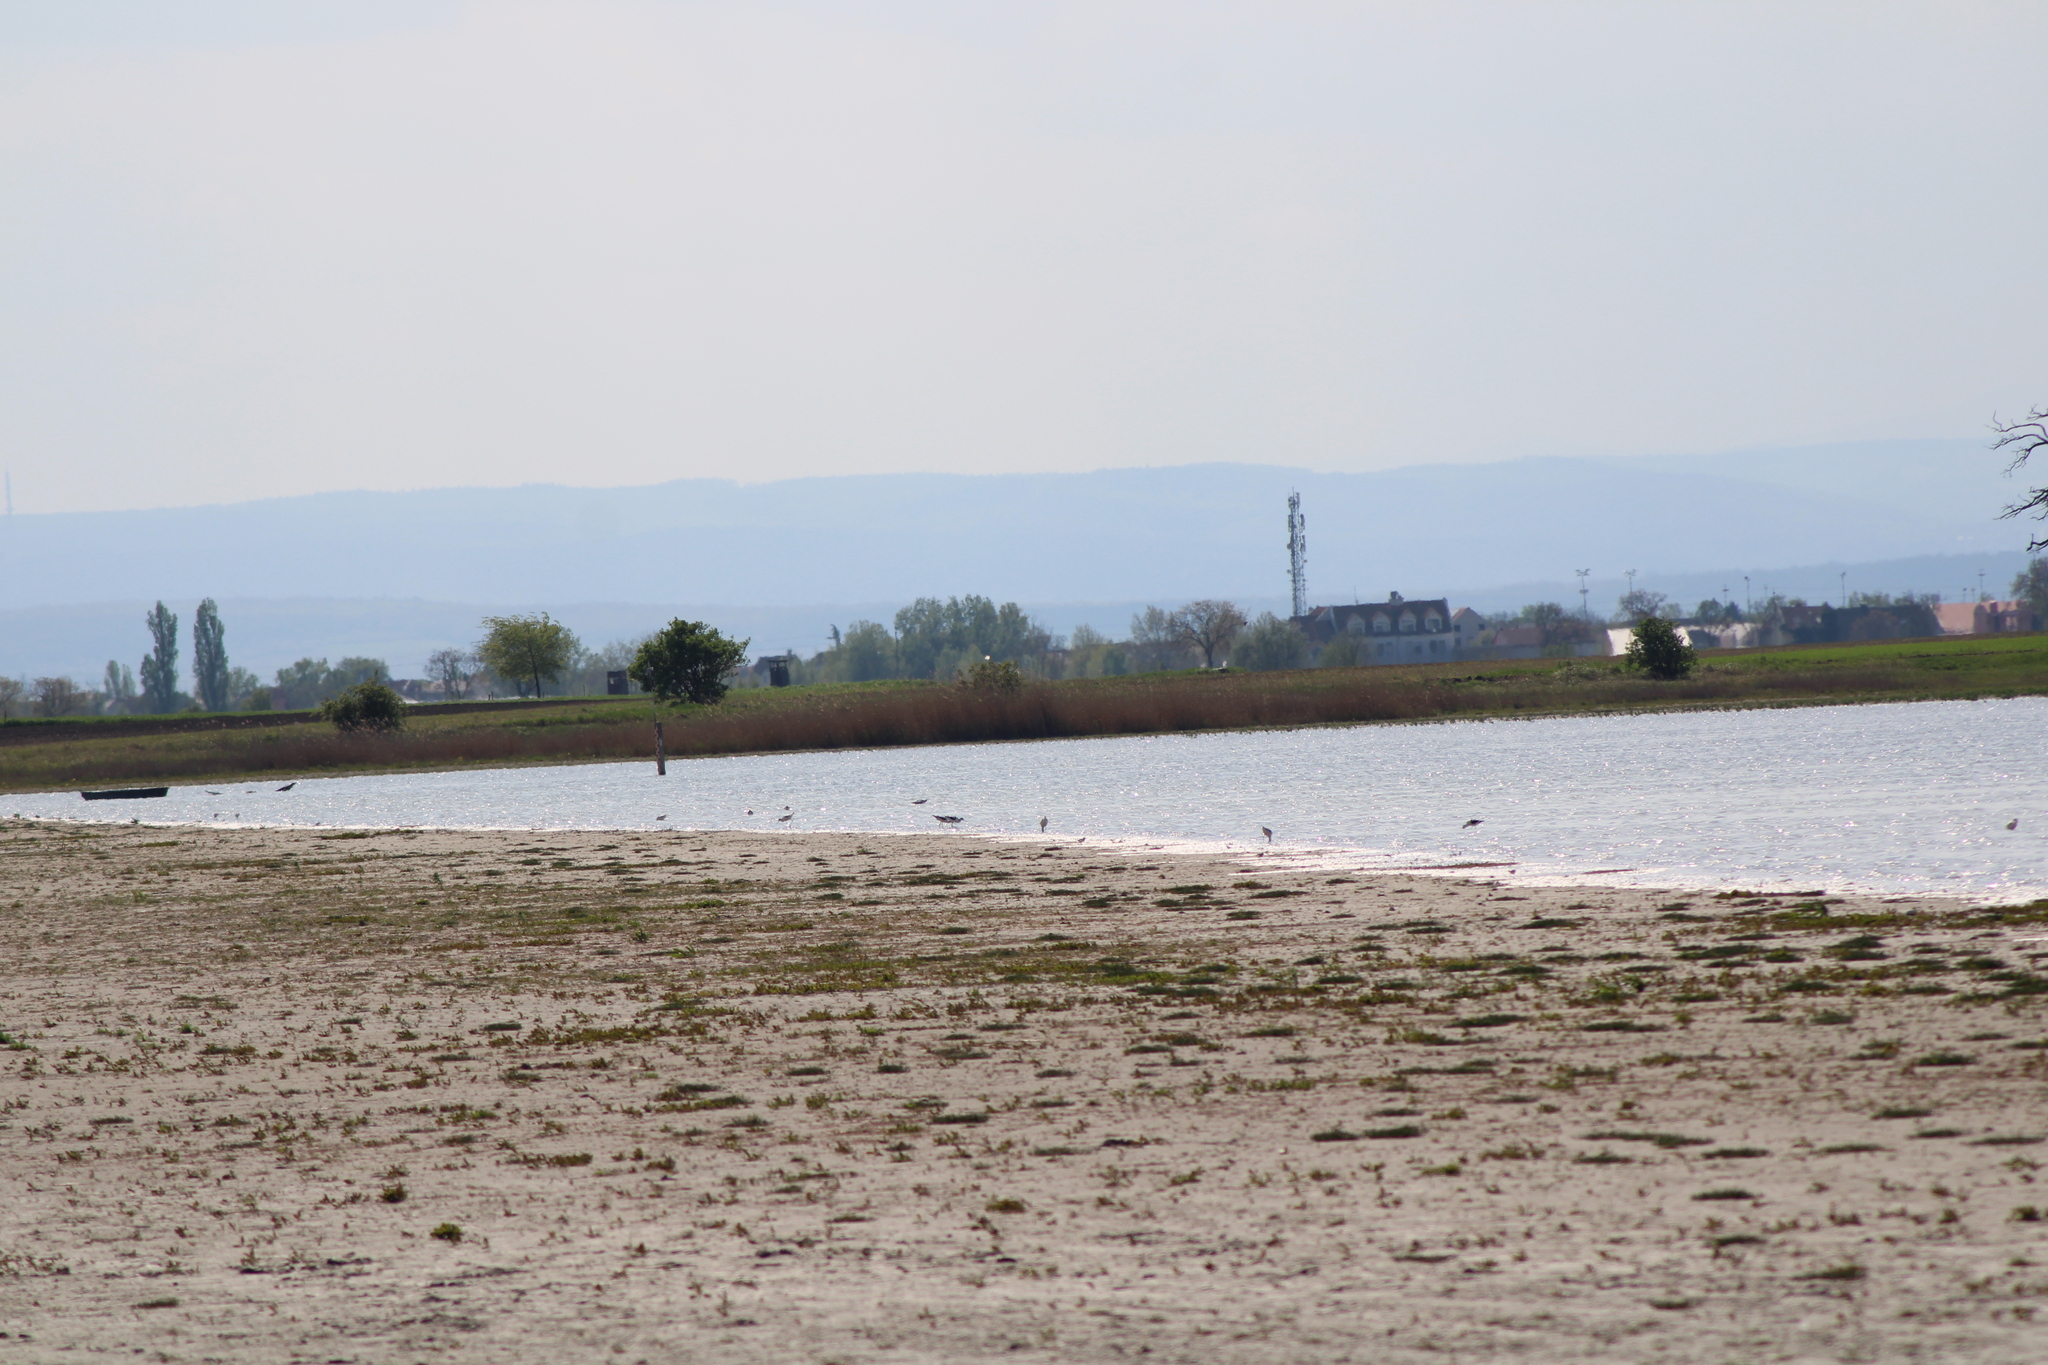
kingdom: Animalia
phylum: Chordata
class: Aves
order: Charadriiformes
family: Recurvirostridae
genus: Recurvirostra
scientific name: Recurvirostra avosetta
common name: Pied avocet
